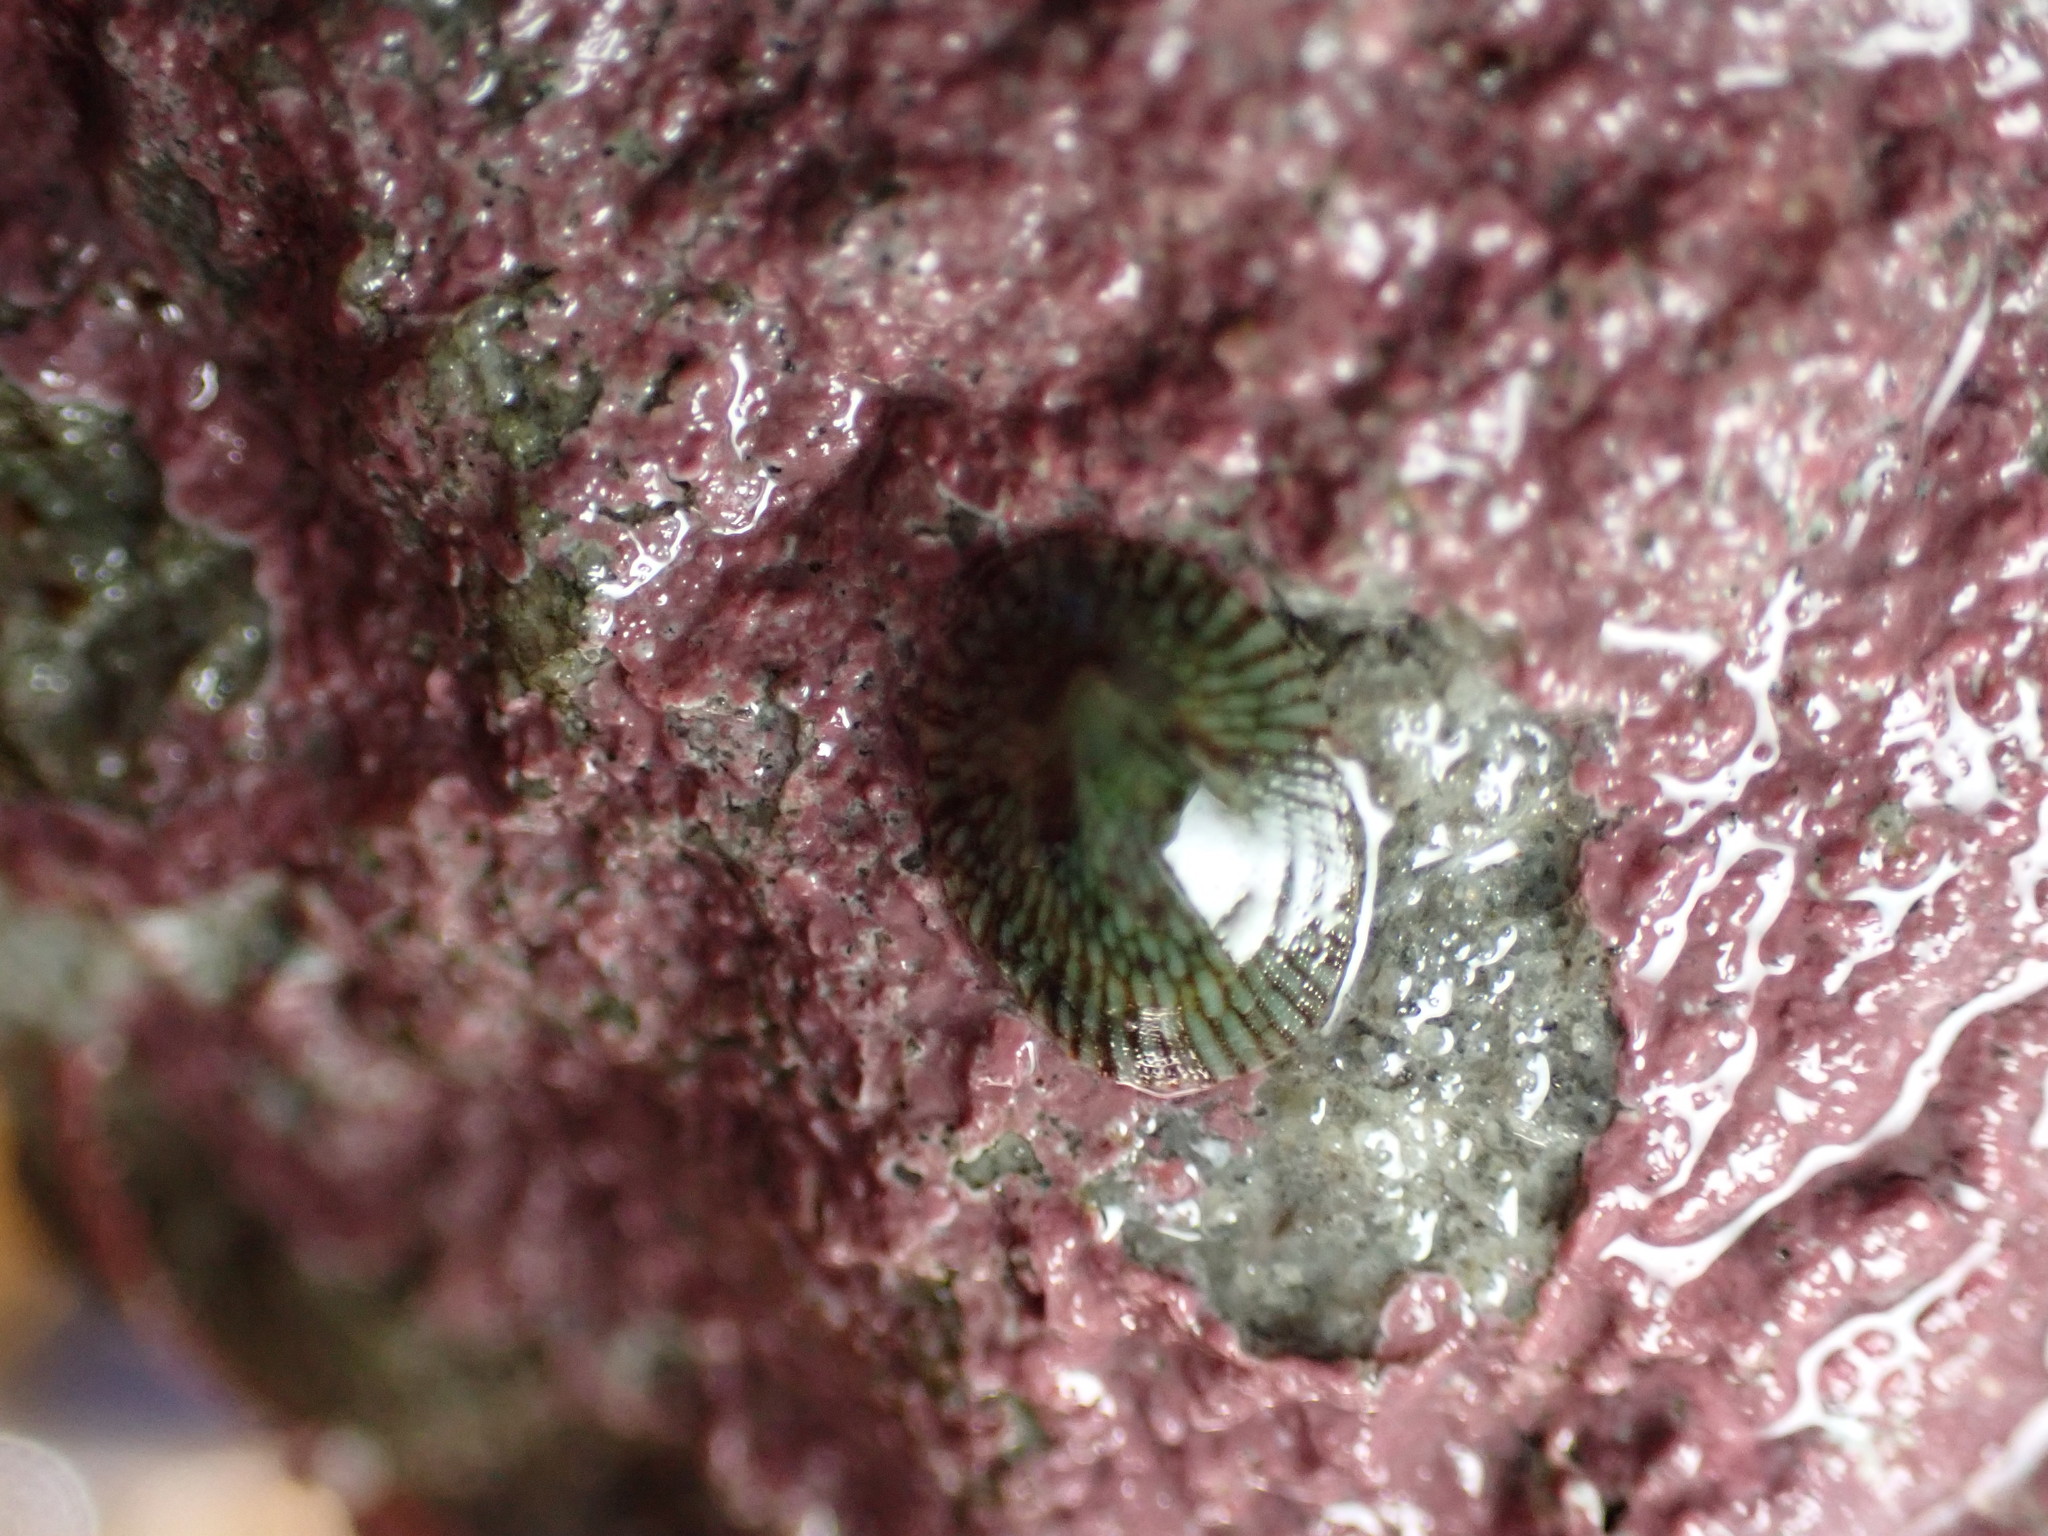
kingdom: Animalia
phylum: Mollusca
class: Gastropoda
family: Lottiidae
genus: Notoacmea
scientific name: Notoacmea
